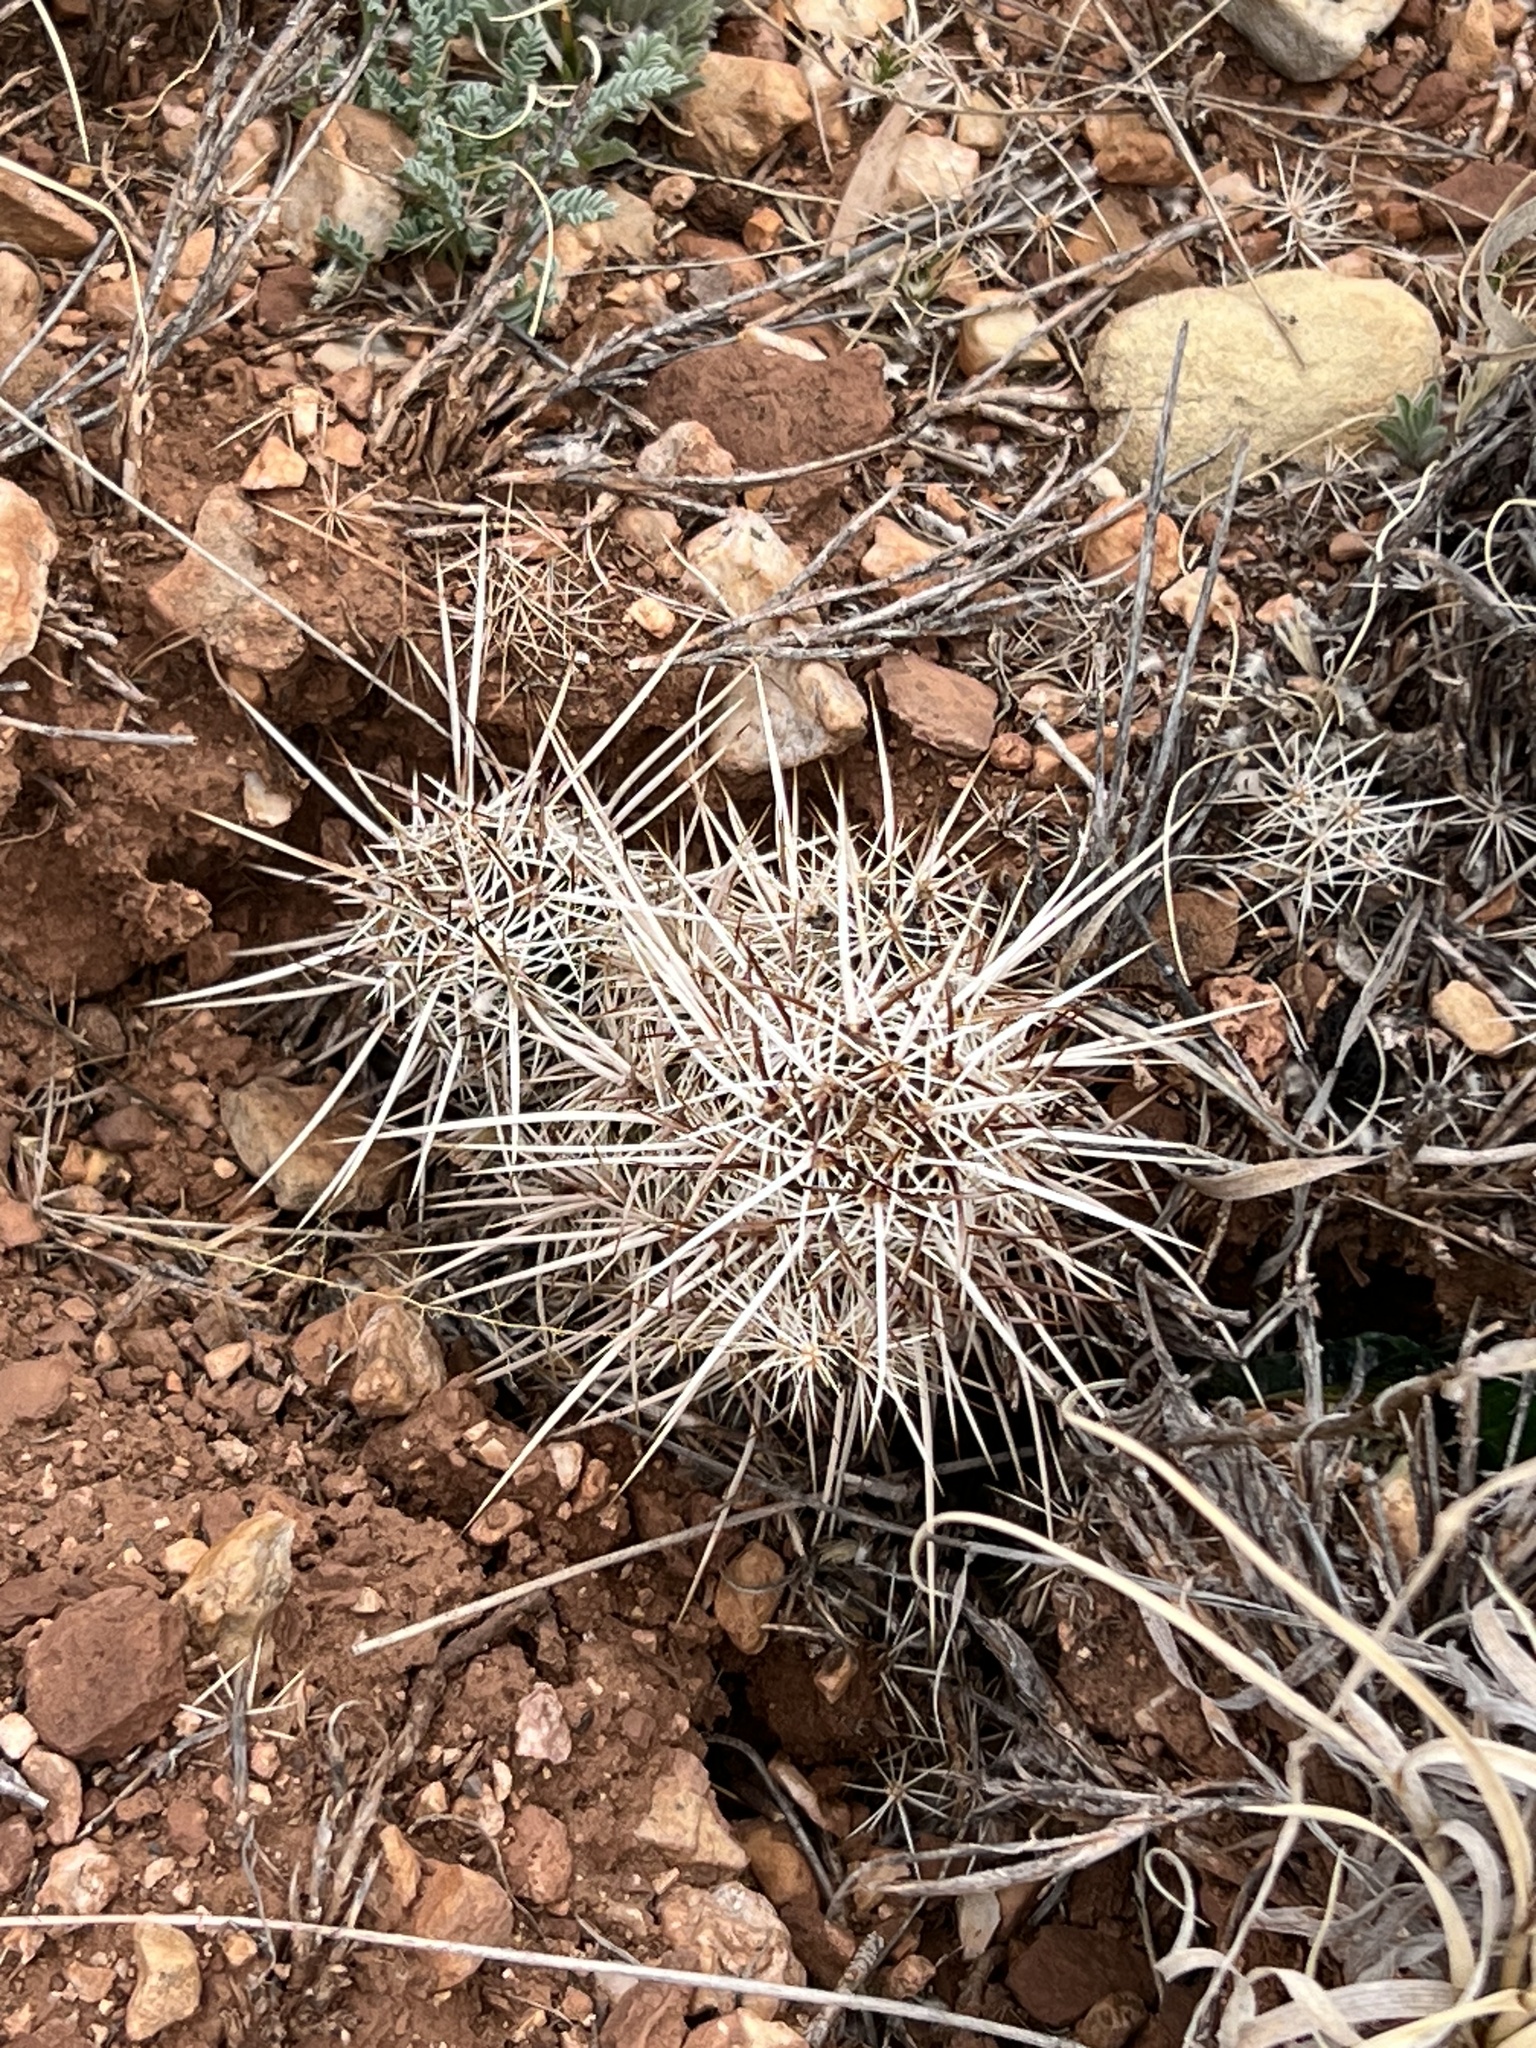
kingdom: Plantae
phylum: Tracheophyta
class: Magnoliopsida
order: Caryophyllales
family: Cactaceae
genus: Echinocereus
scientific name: Echinocereus engelmannii
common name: Engelmann's hedgehog cactus
